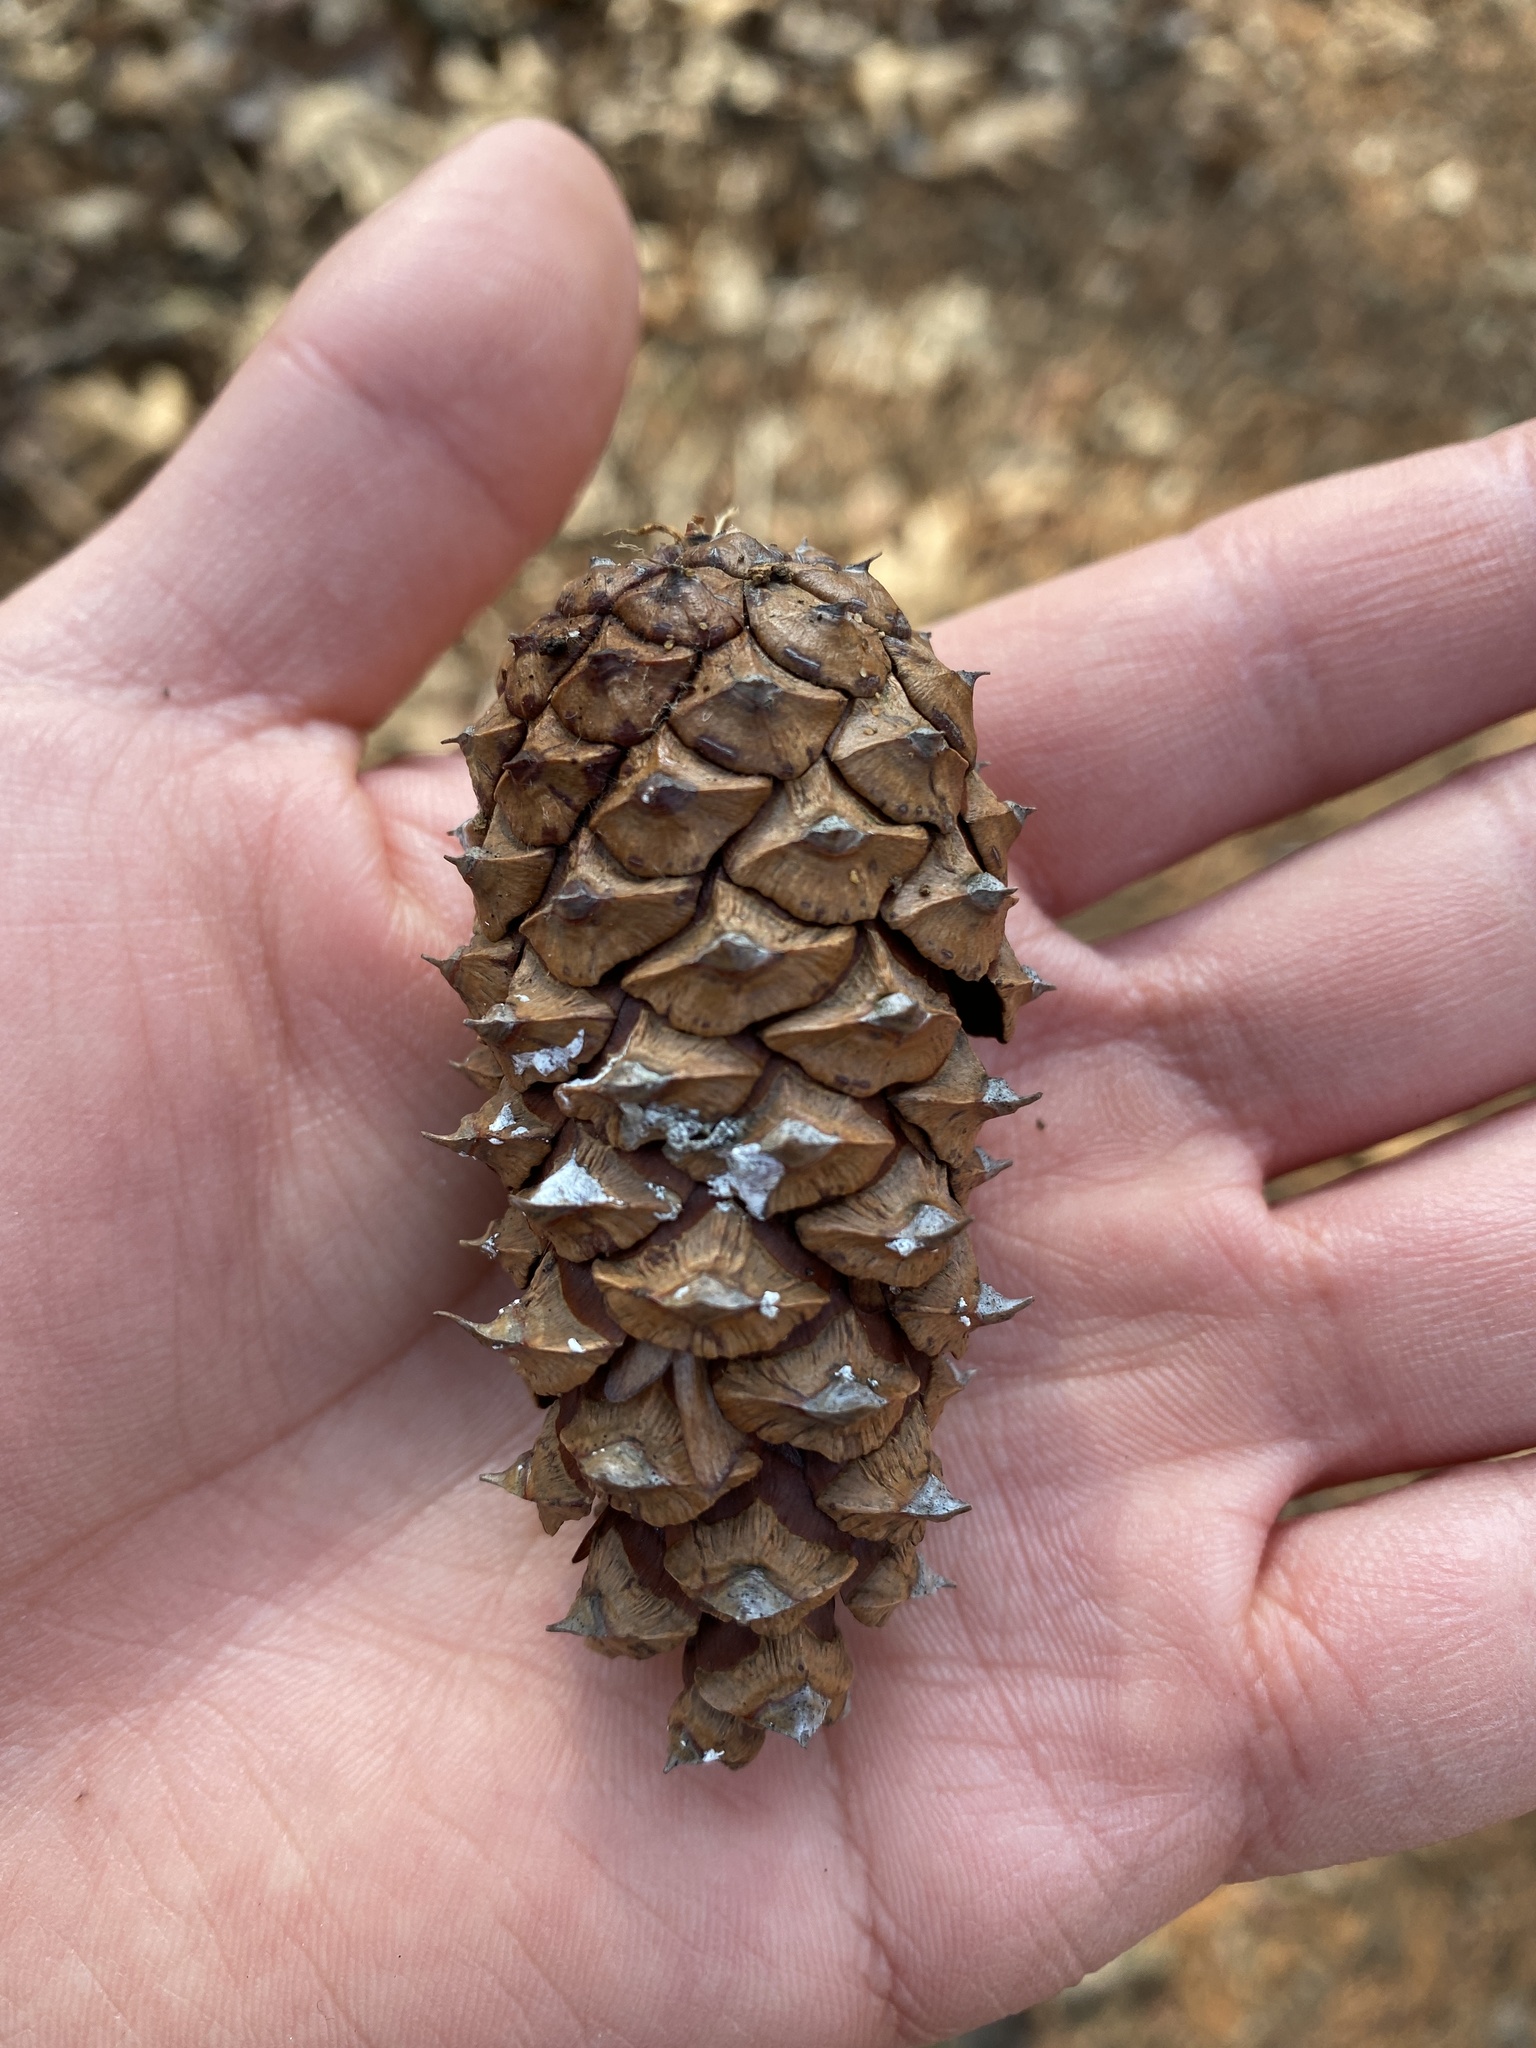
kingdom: Plantae
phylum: Tracheophyta
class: Pinopsida
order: Pinales
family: Pinaceae
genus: Pinus
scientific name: Pinus virginiana
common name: Scrub pine
